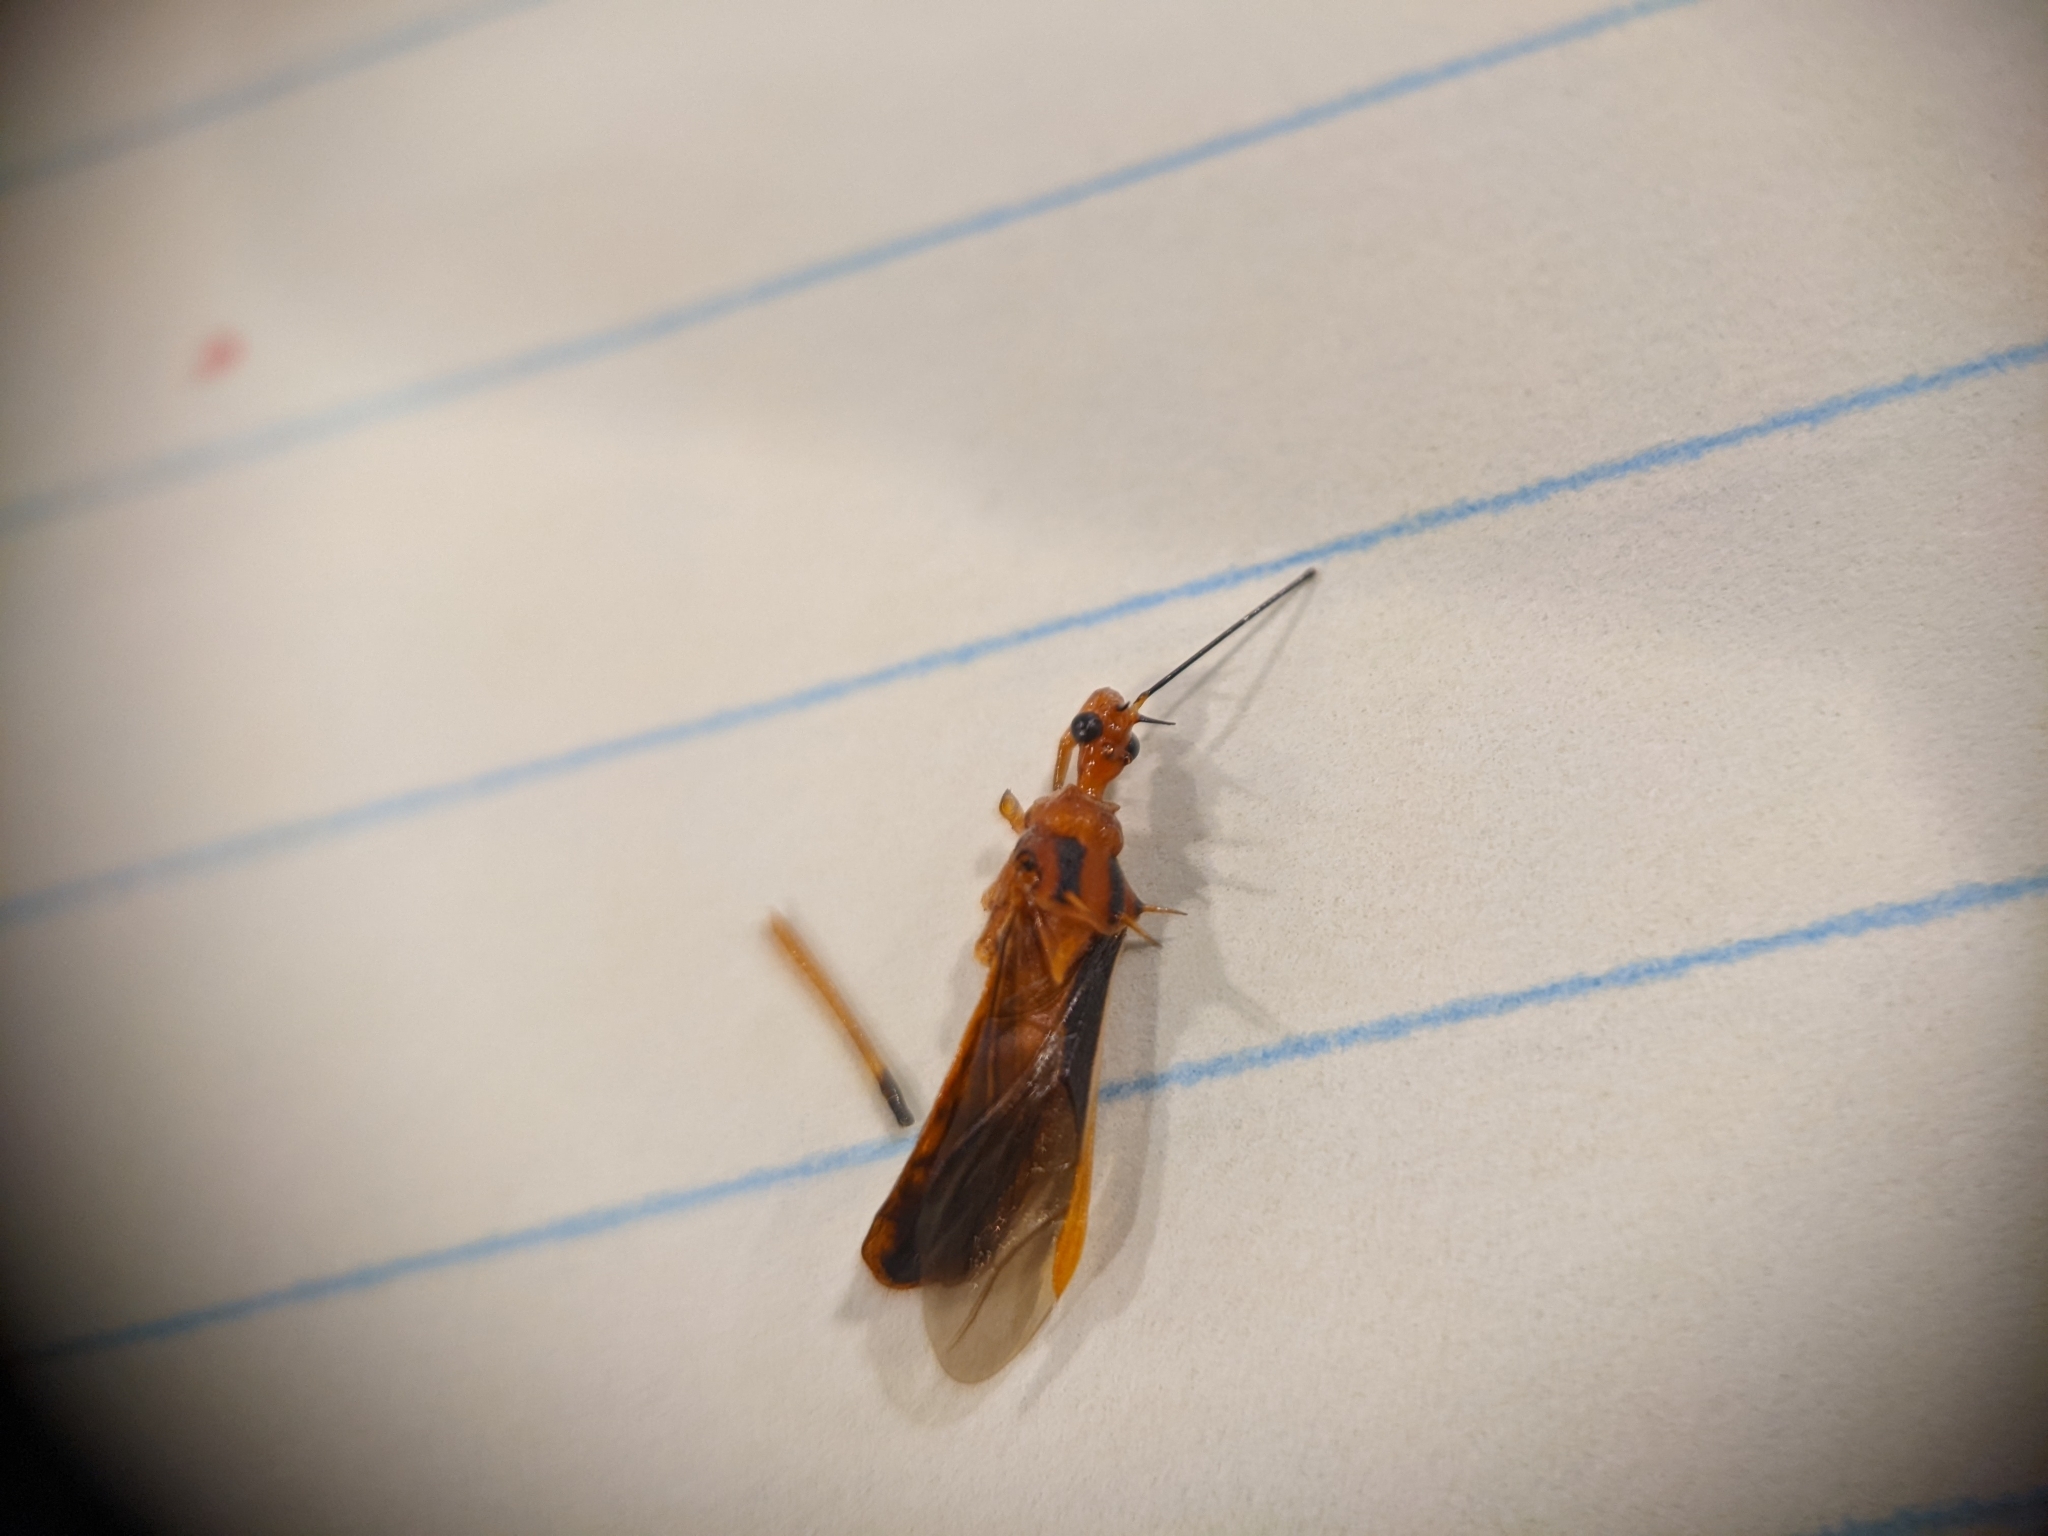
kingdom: Animalia
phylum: Arthropoda
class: Insecta
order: Hemiptera
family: Reduviidae
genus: Repipta
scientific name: Repipta taurus
